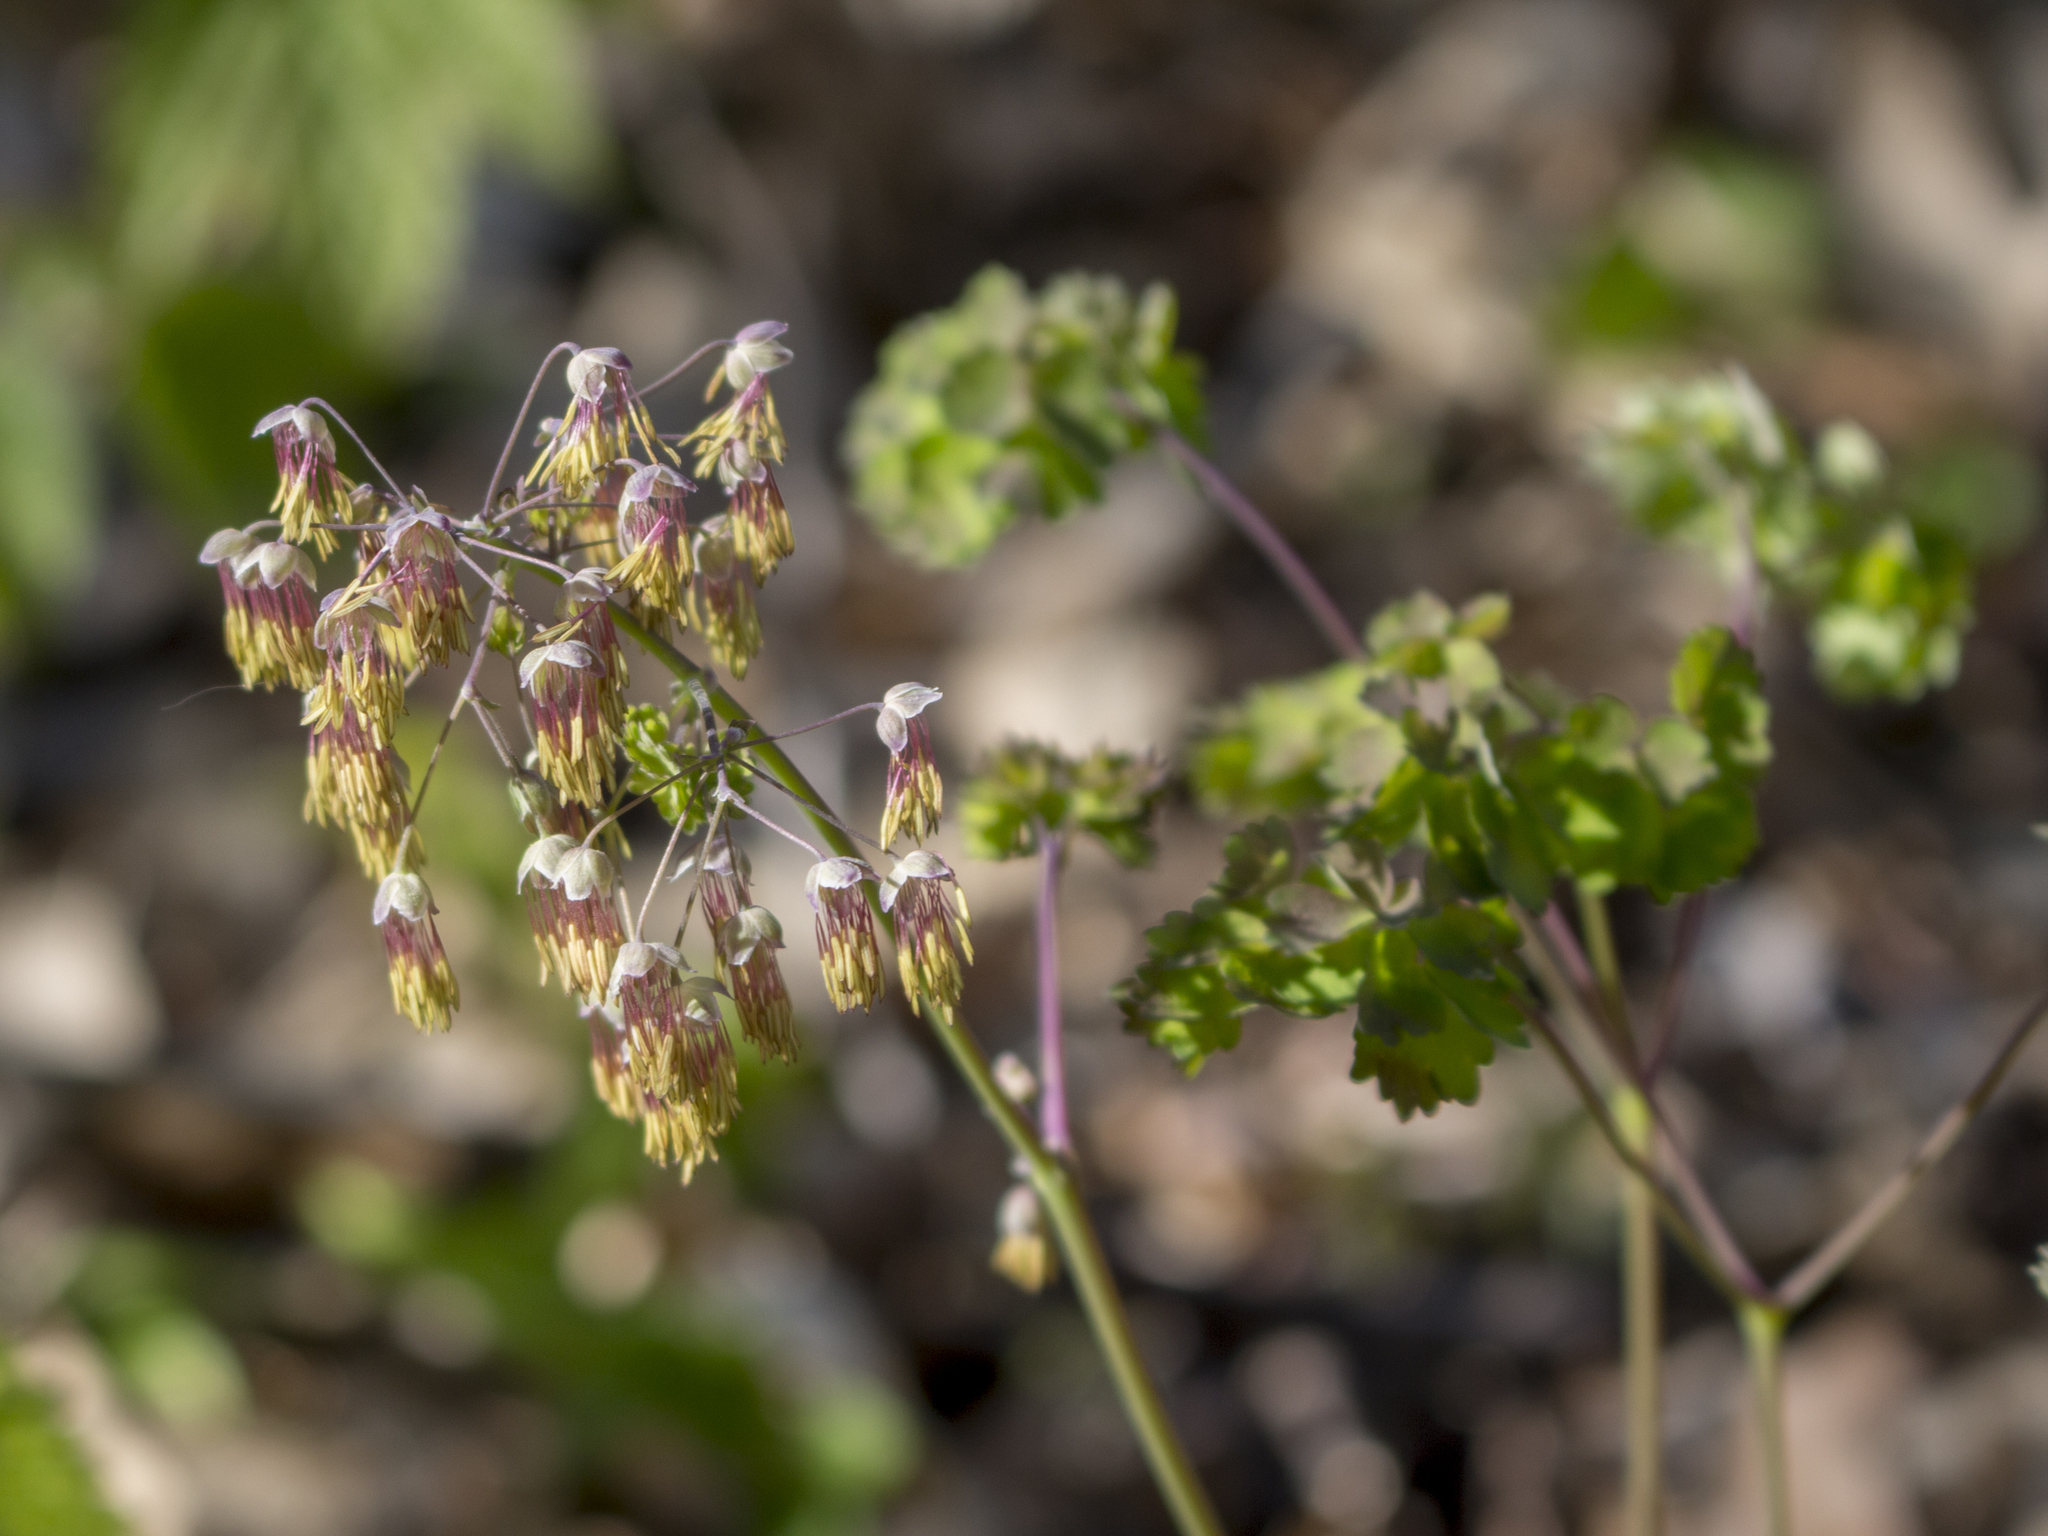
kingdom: Plantae
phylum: Tracheophyta
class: Magnoliopsida
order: Ranunculales
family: Ranunculaceae
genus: Thalictrum
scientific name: Thalictrum dioicum
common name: Early meadow-rue
